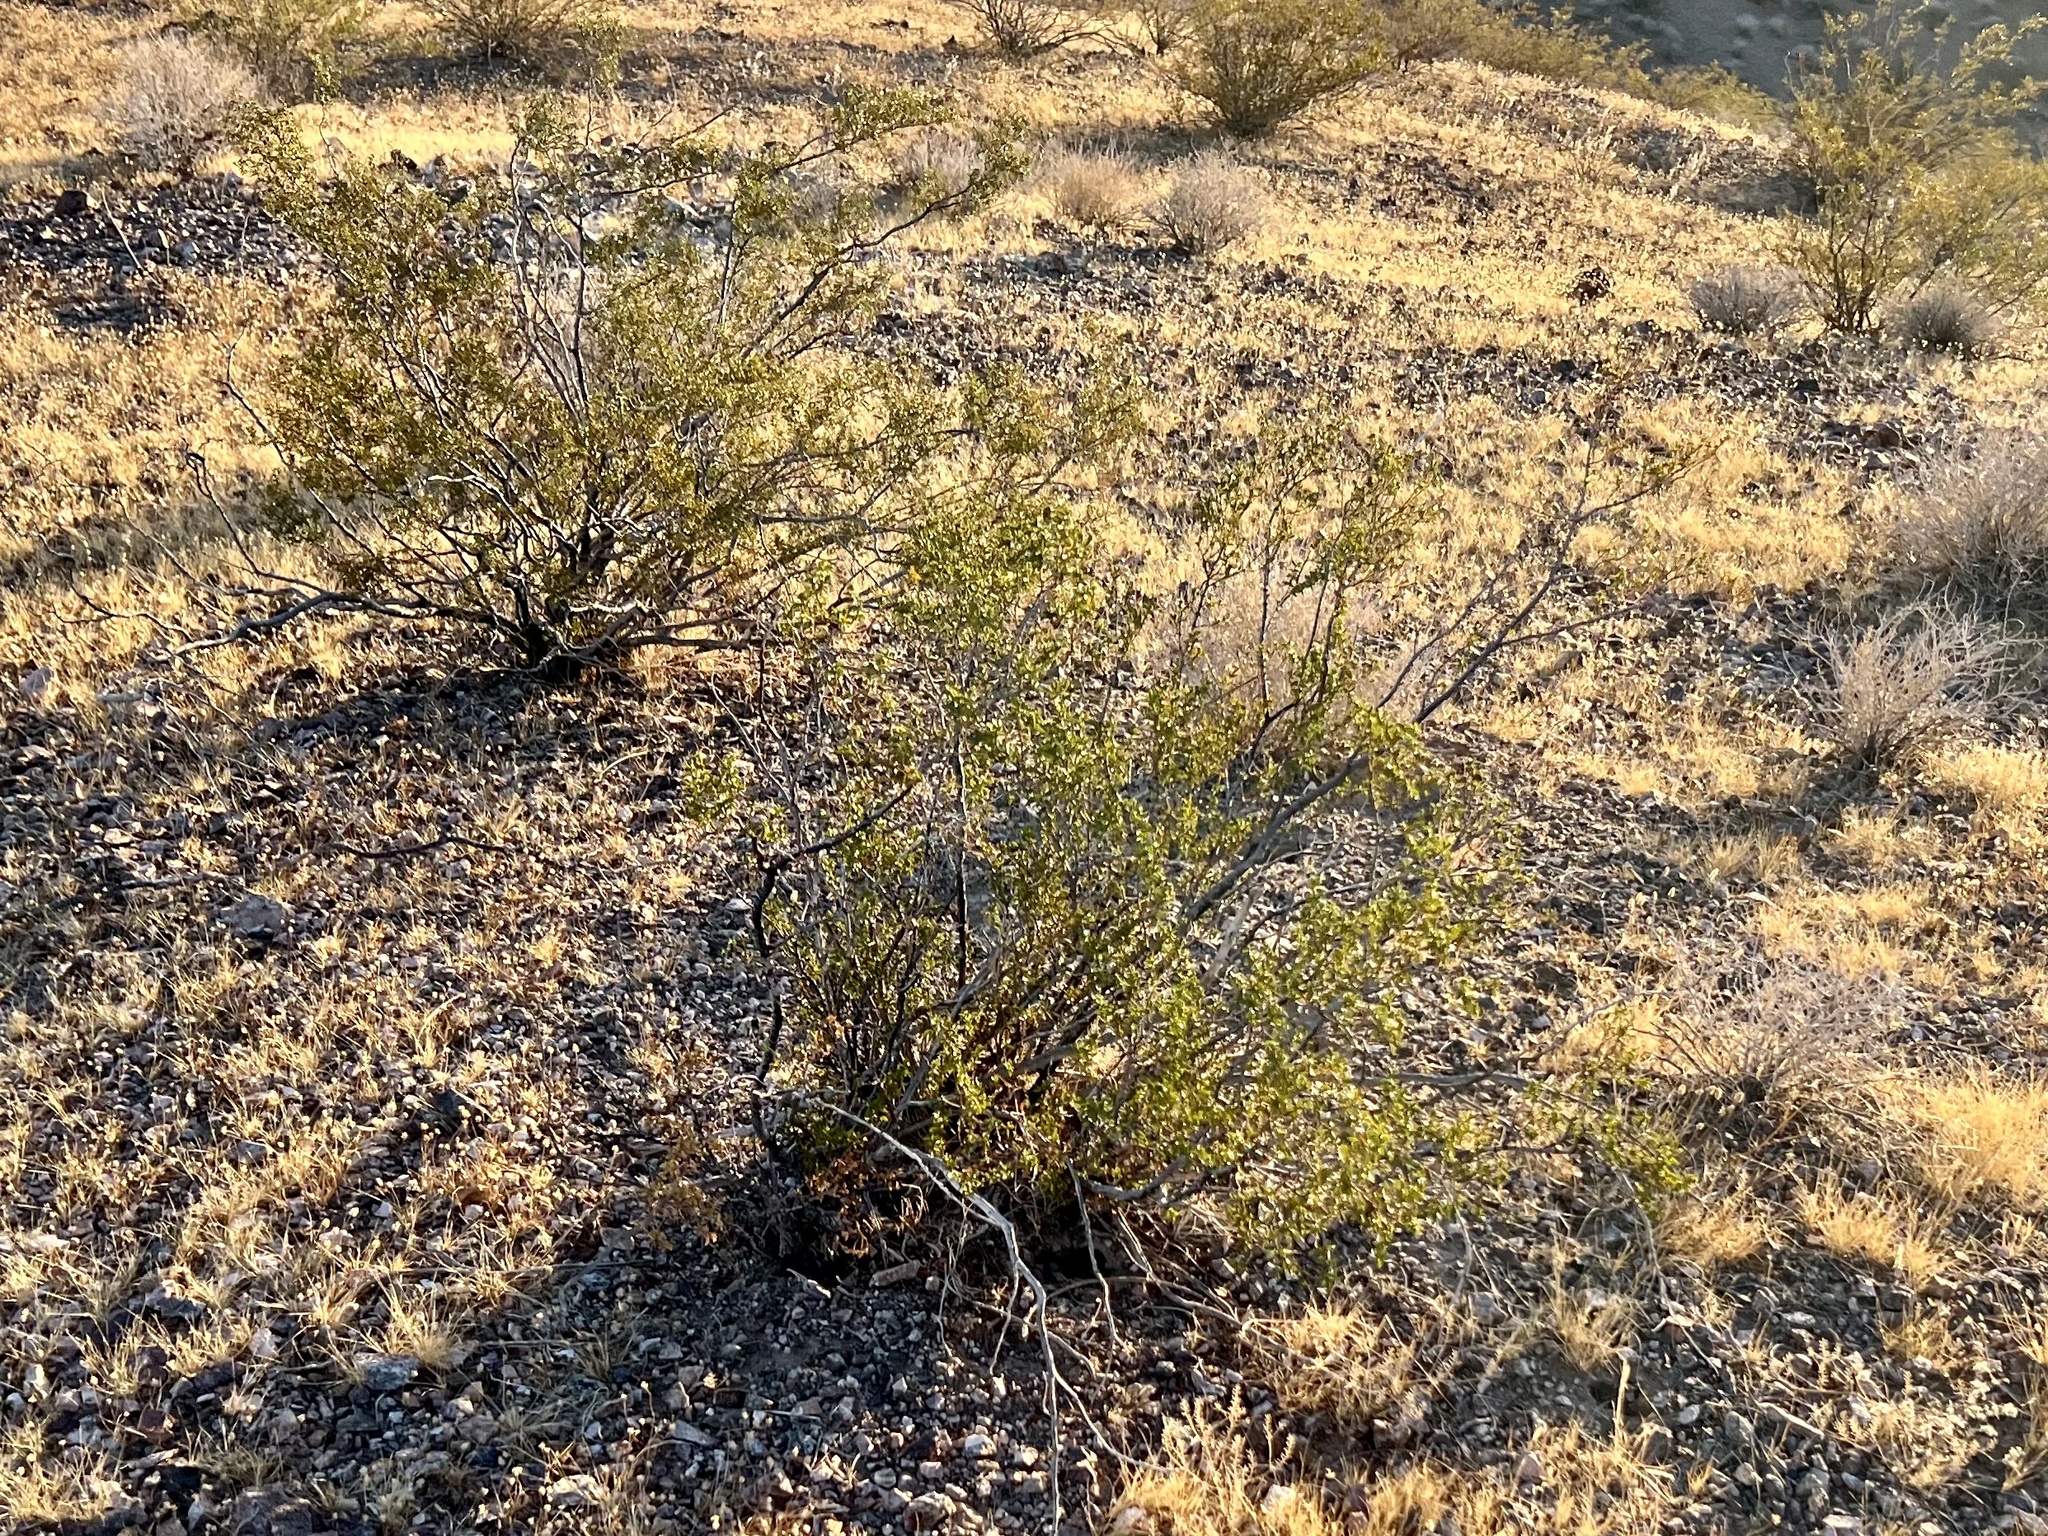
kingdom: Plantae
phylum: Tracheophyta
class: Magnoliopsida
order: Zygophyllales
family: Zygophyllaceae
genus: Larrea
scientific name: Larrea tridentata
